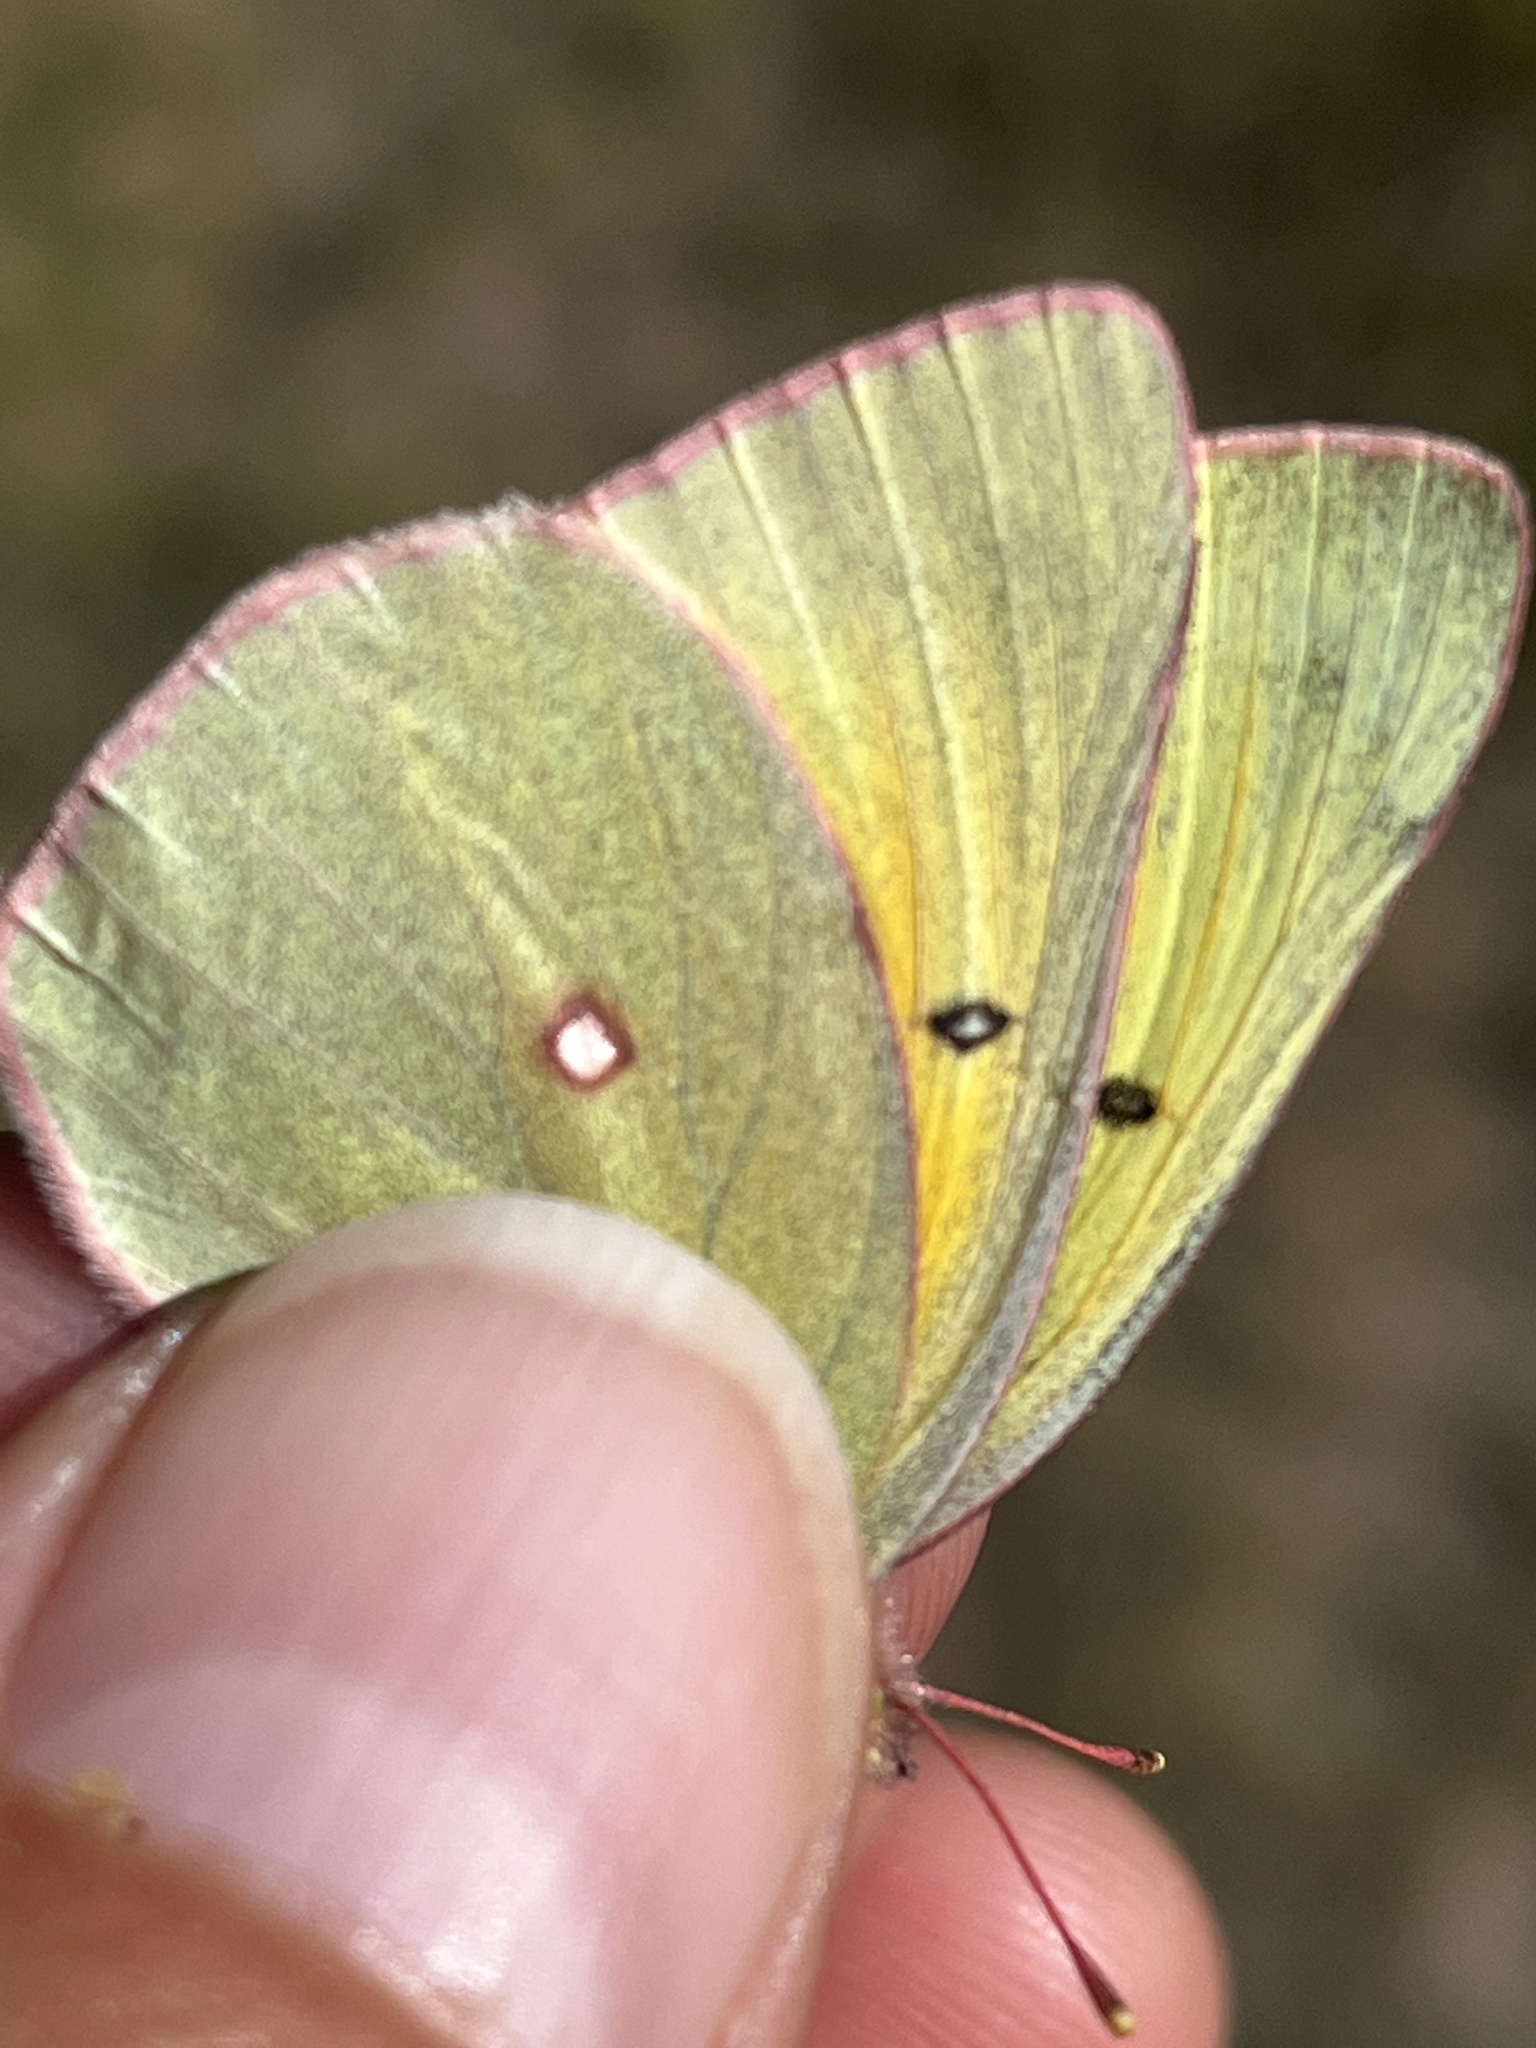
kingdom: Animalia
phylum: Arthropoda
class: Insecta
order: Lepidoptera
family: Pieridae
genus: Colias
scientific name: Colias christina
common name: Christina sulphur
